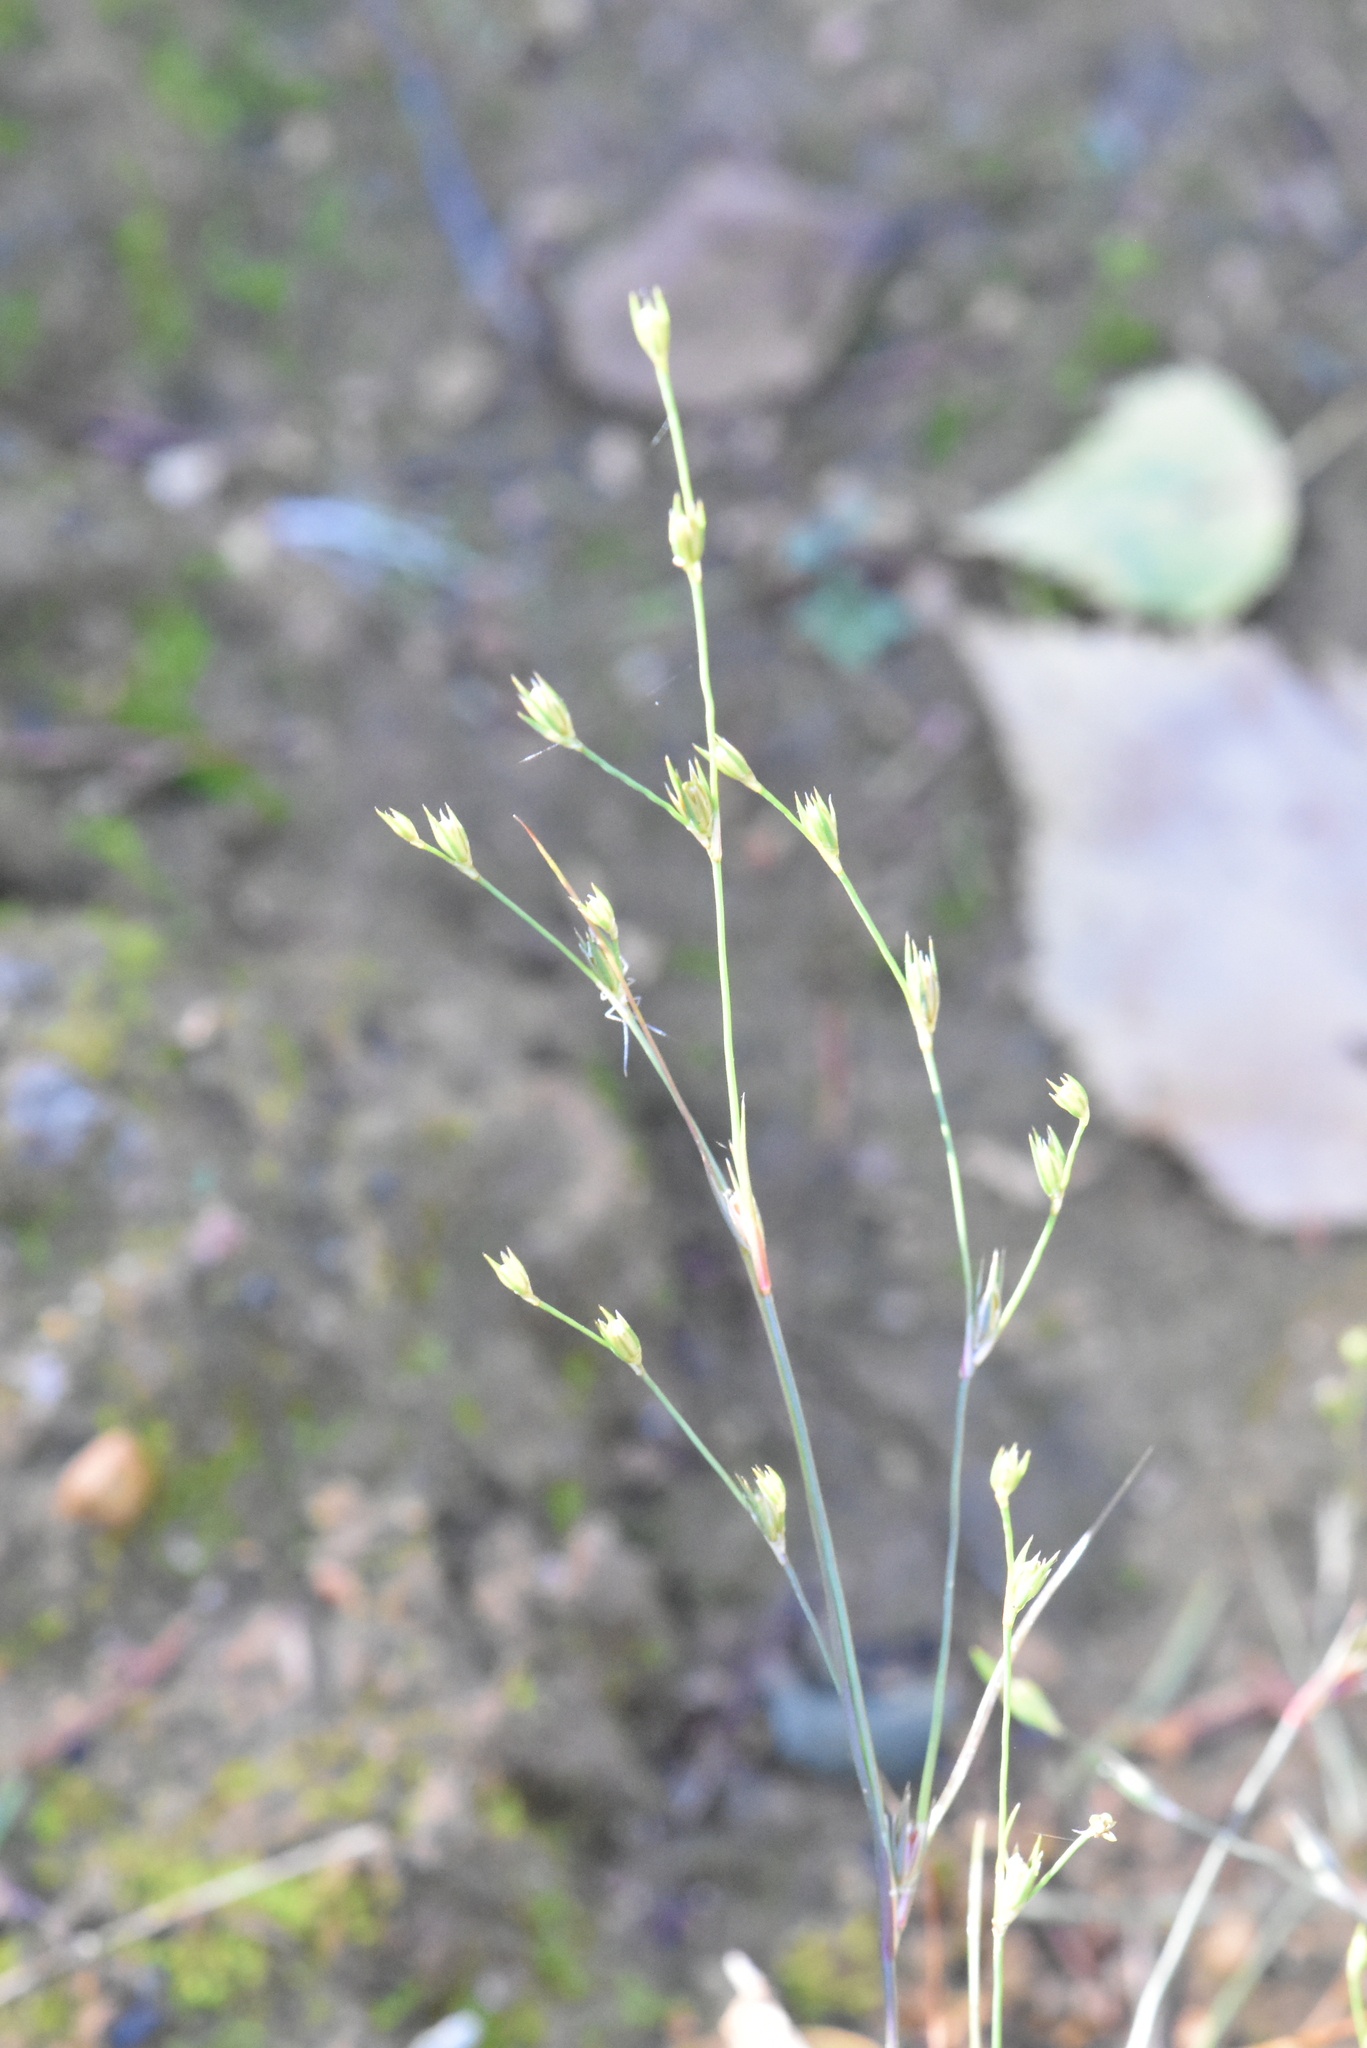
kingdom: Plantae
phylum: Tracheophyta
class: Liliopsida
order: Poales
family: Juncaceae
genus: Juncus
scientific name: Juncus bufonius
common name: Toad rush
